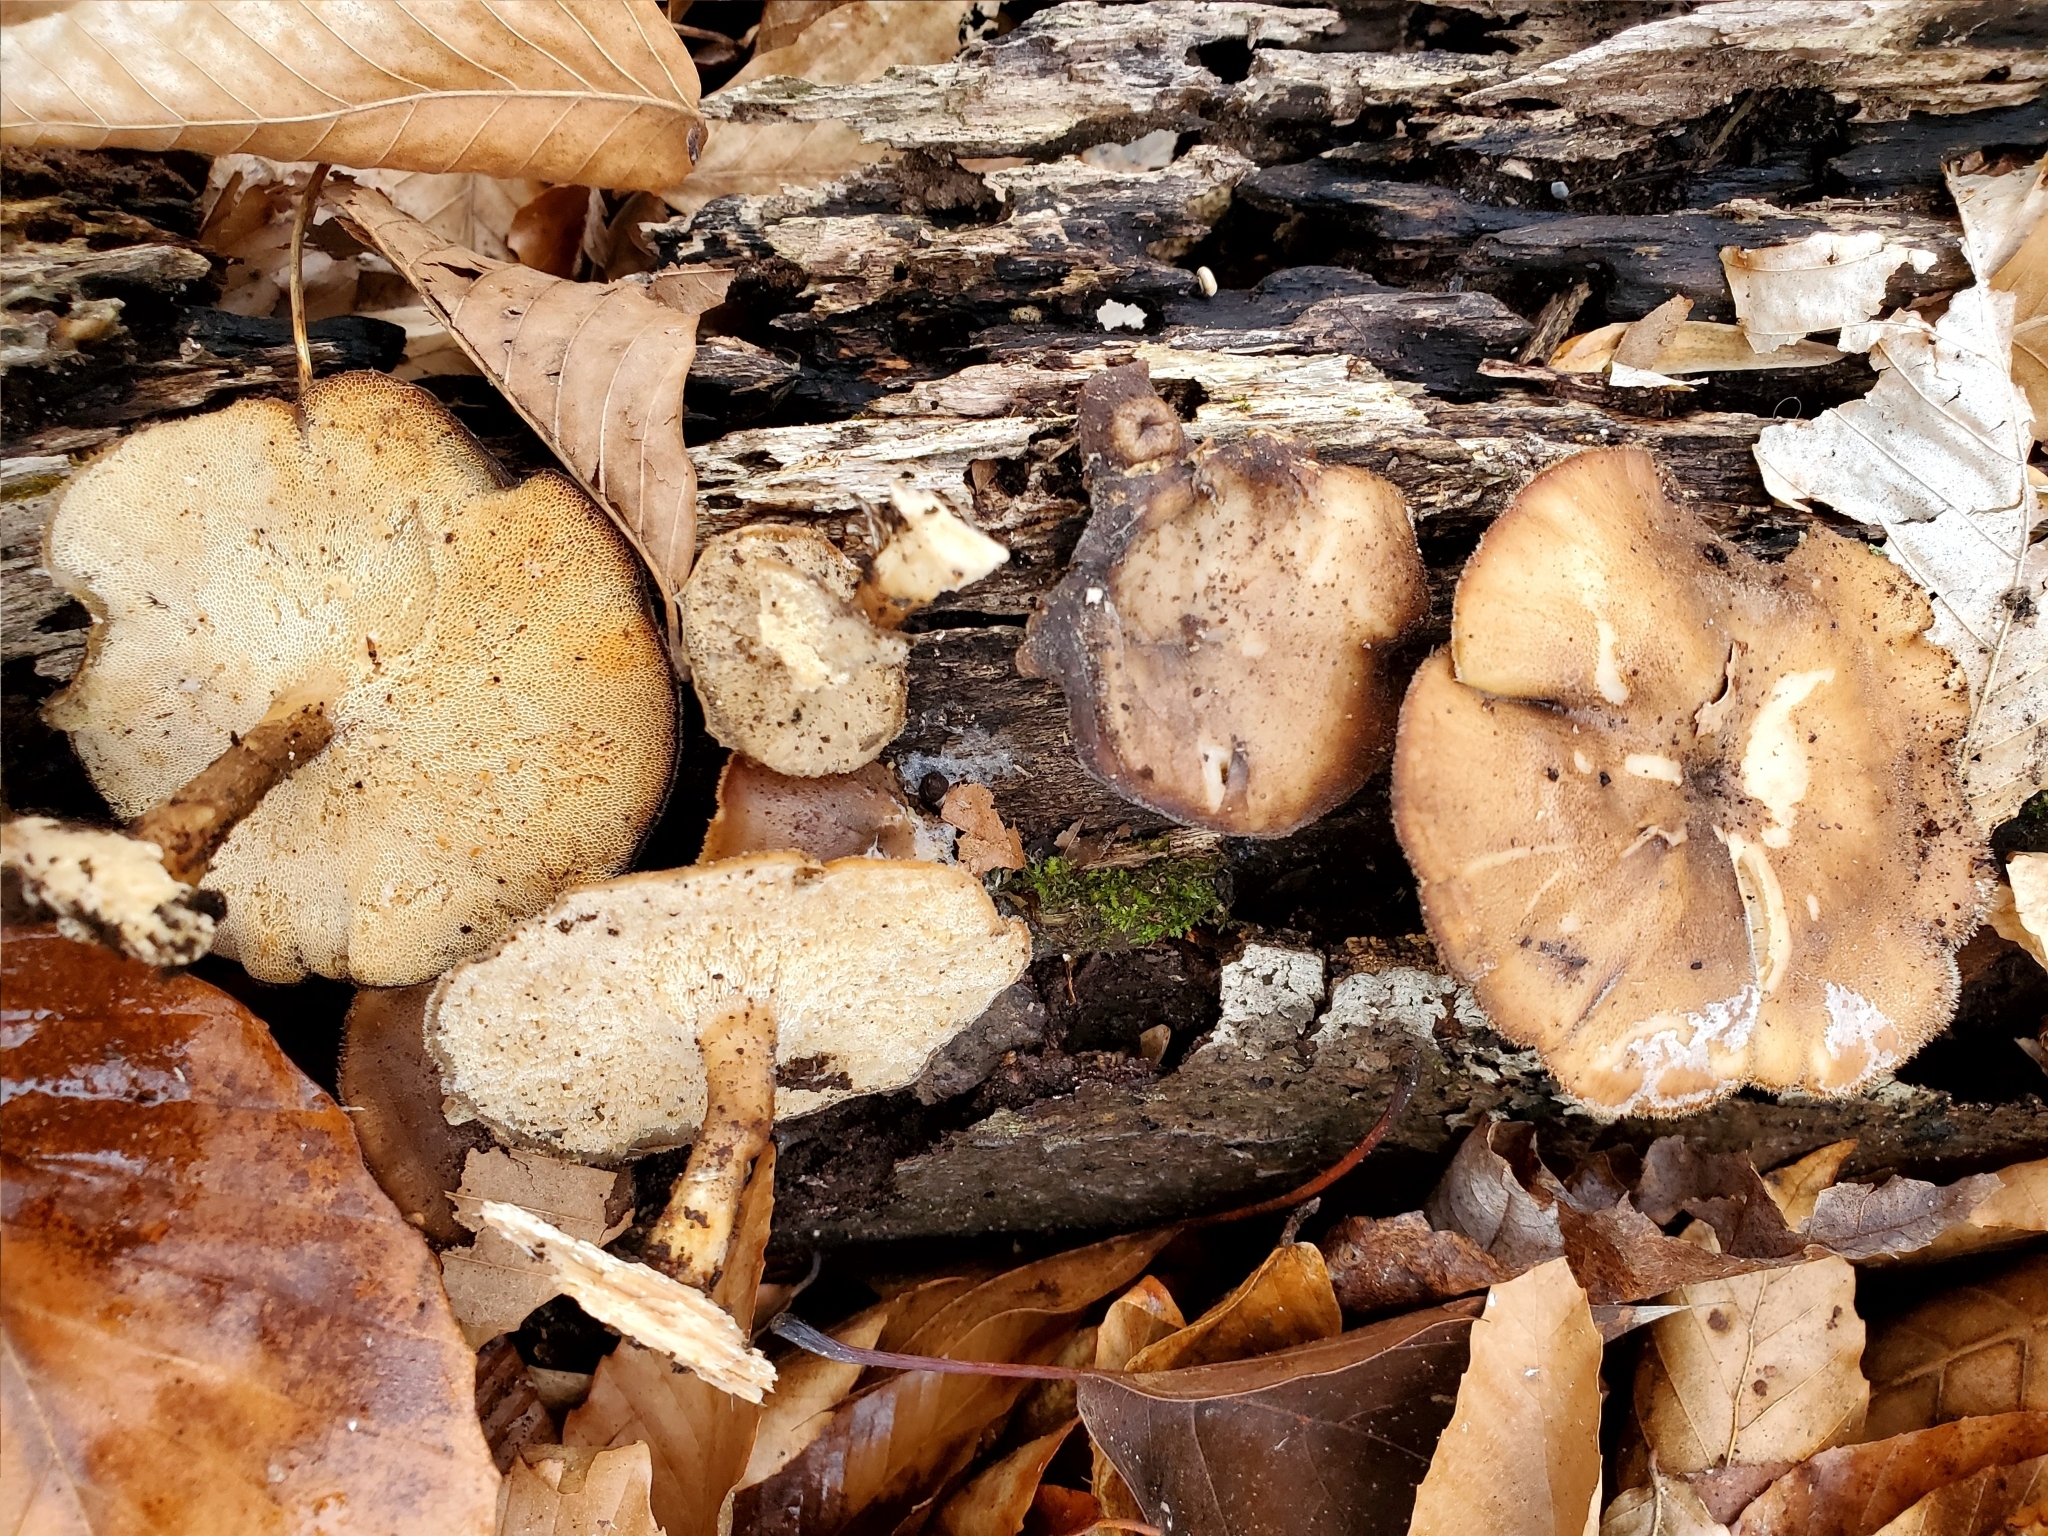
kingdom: Fungi
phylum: Basidiomycota
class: Agaricomycetes
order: Polyporales
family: Polyporaceae
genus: Lentinus
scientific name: Lentinus brumalis
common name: Winter polypore
